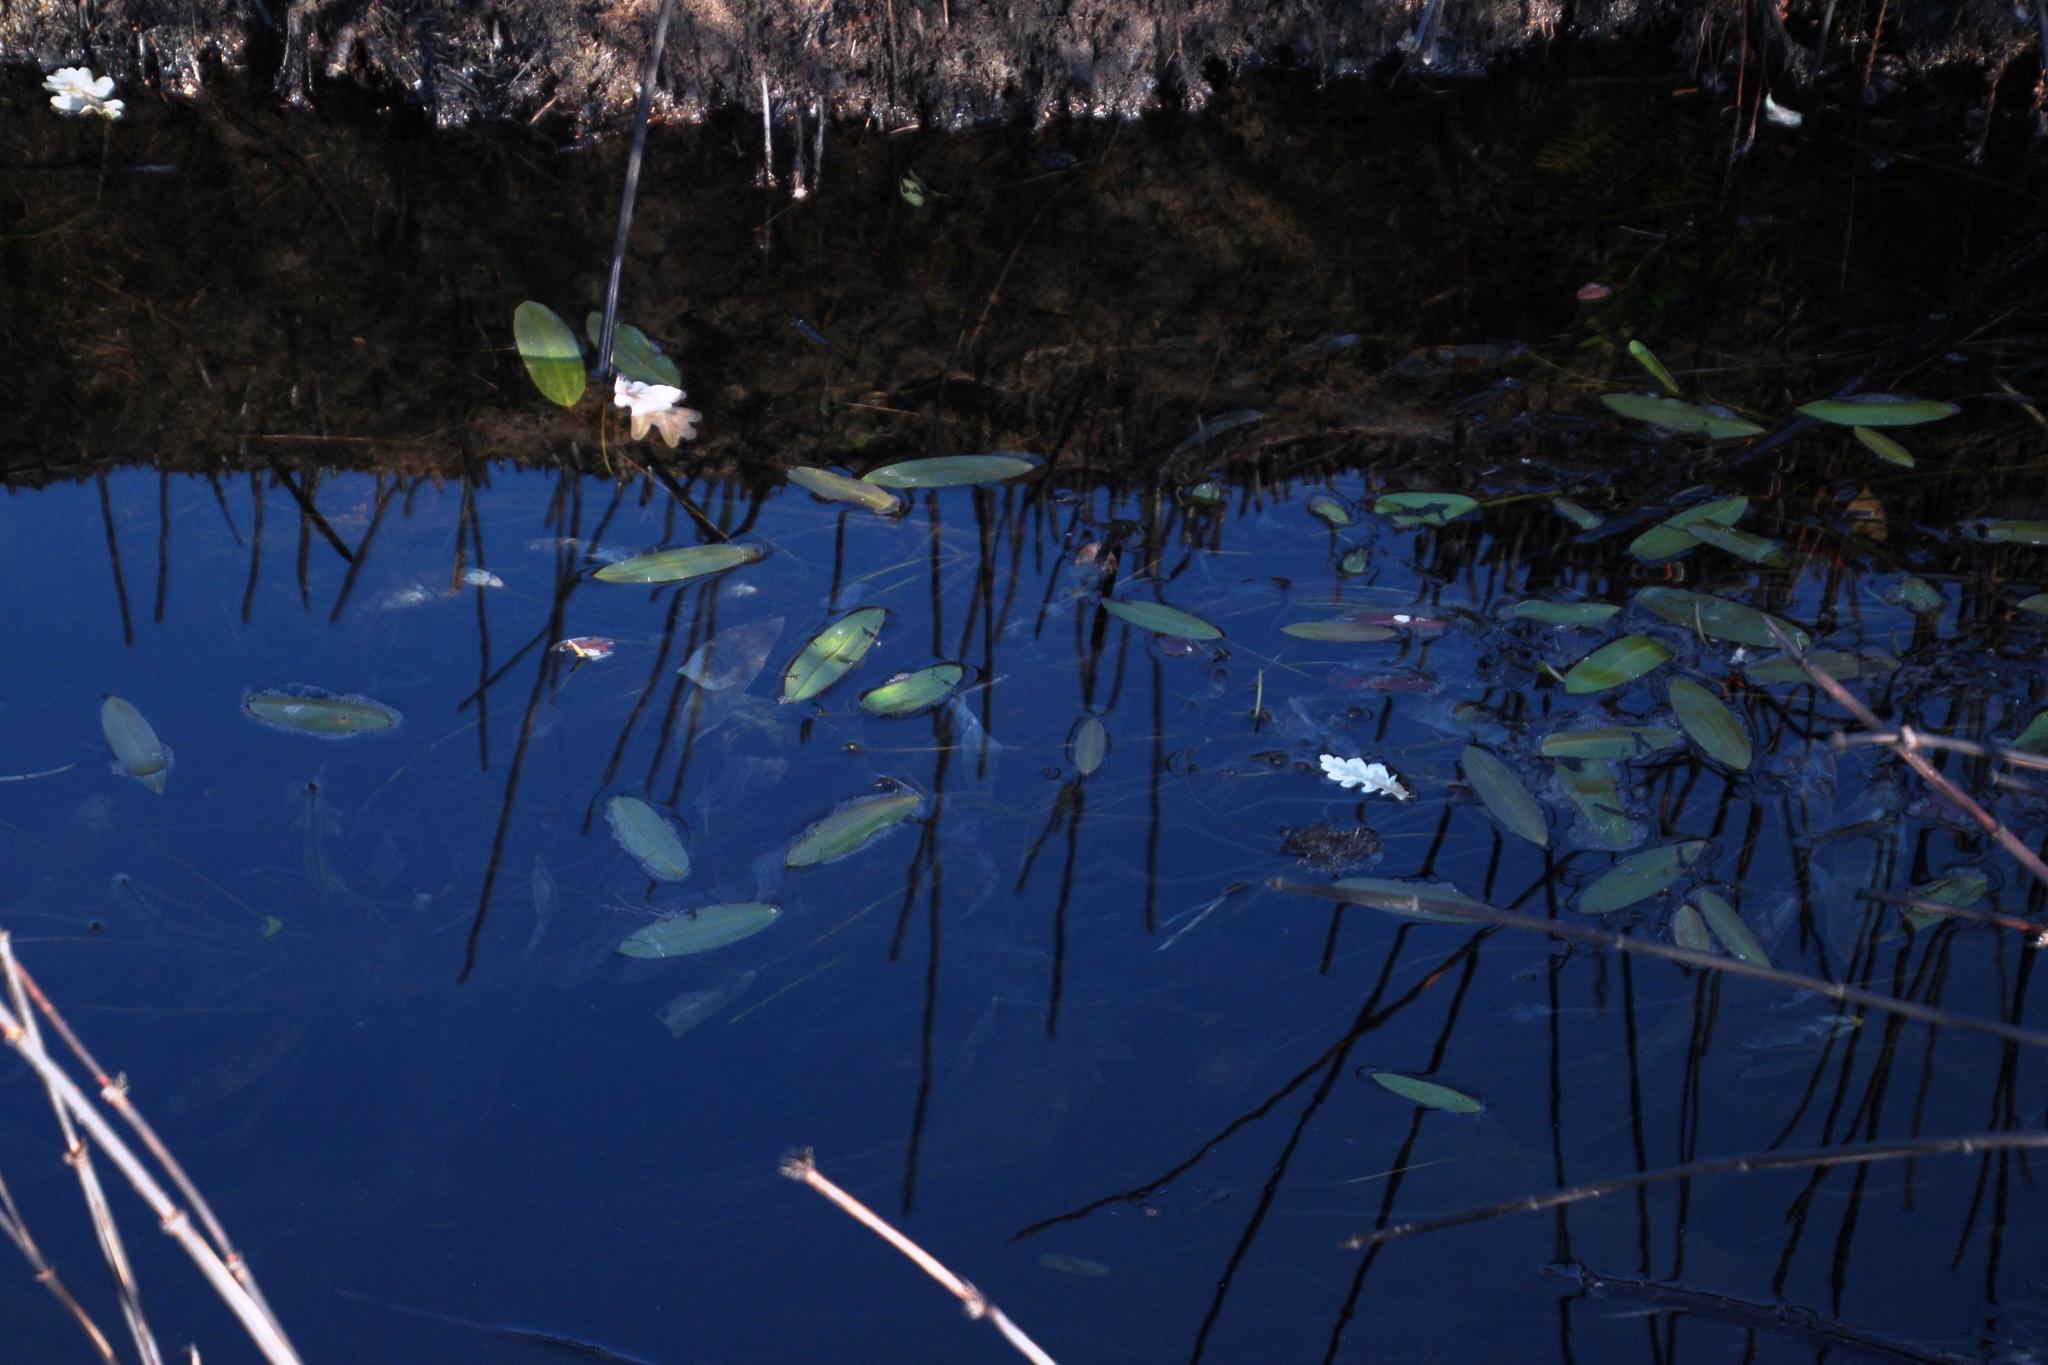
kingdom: Plantae
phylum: Tracheophyta
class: Liliopsida
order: Alismatales
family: Aponogetonaceae
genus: Aponogeton
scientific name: Aponogeton distachyos
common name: Cape-pondweed
